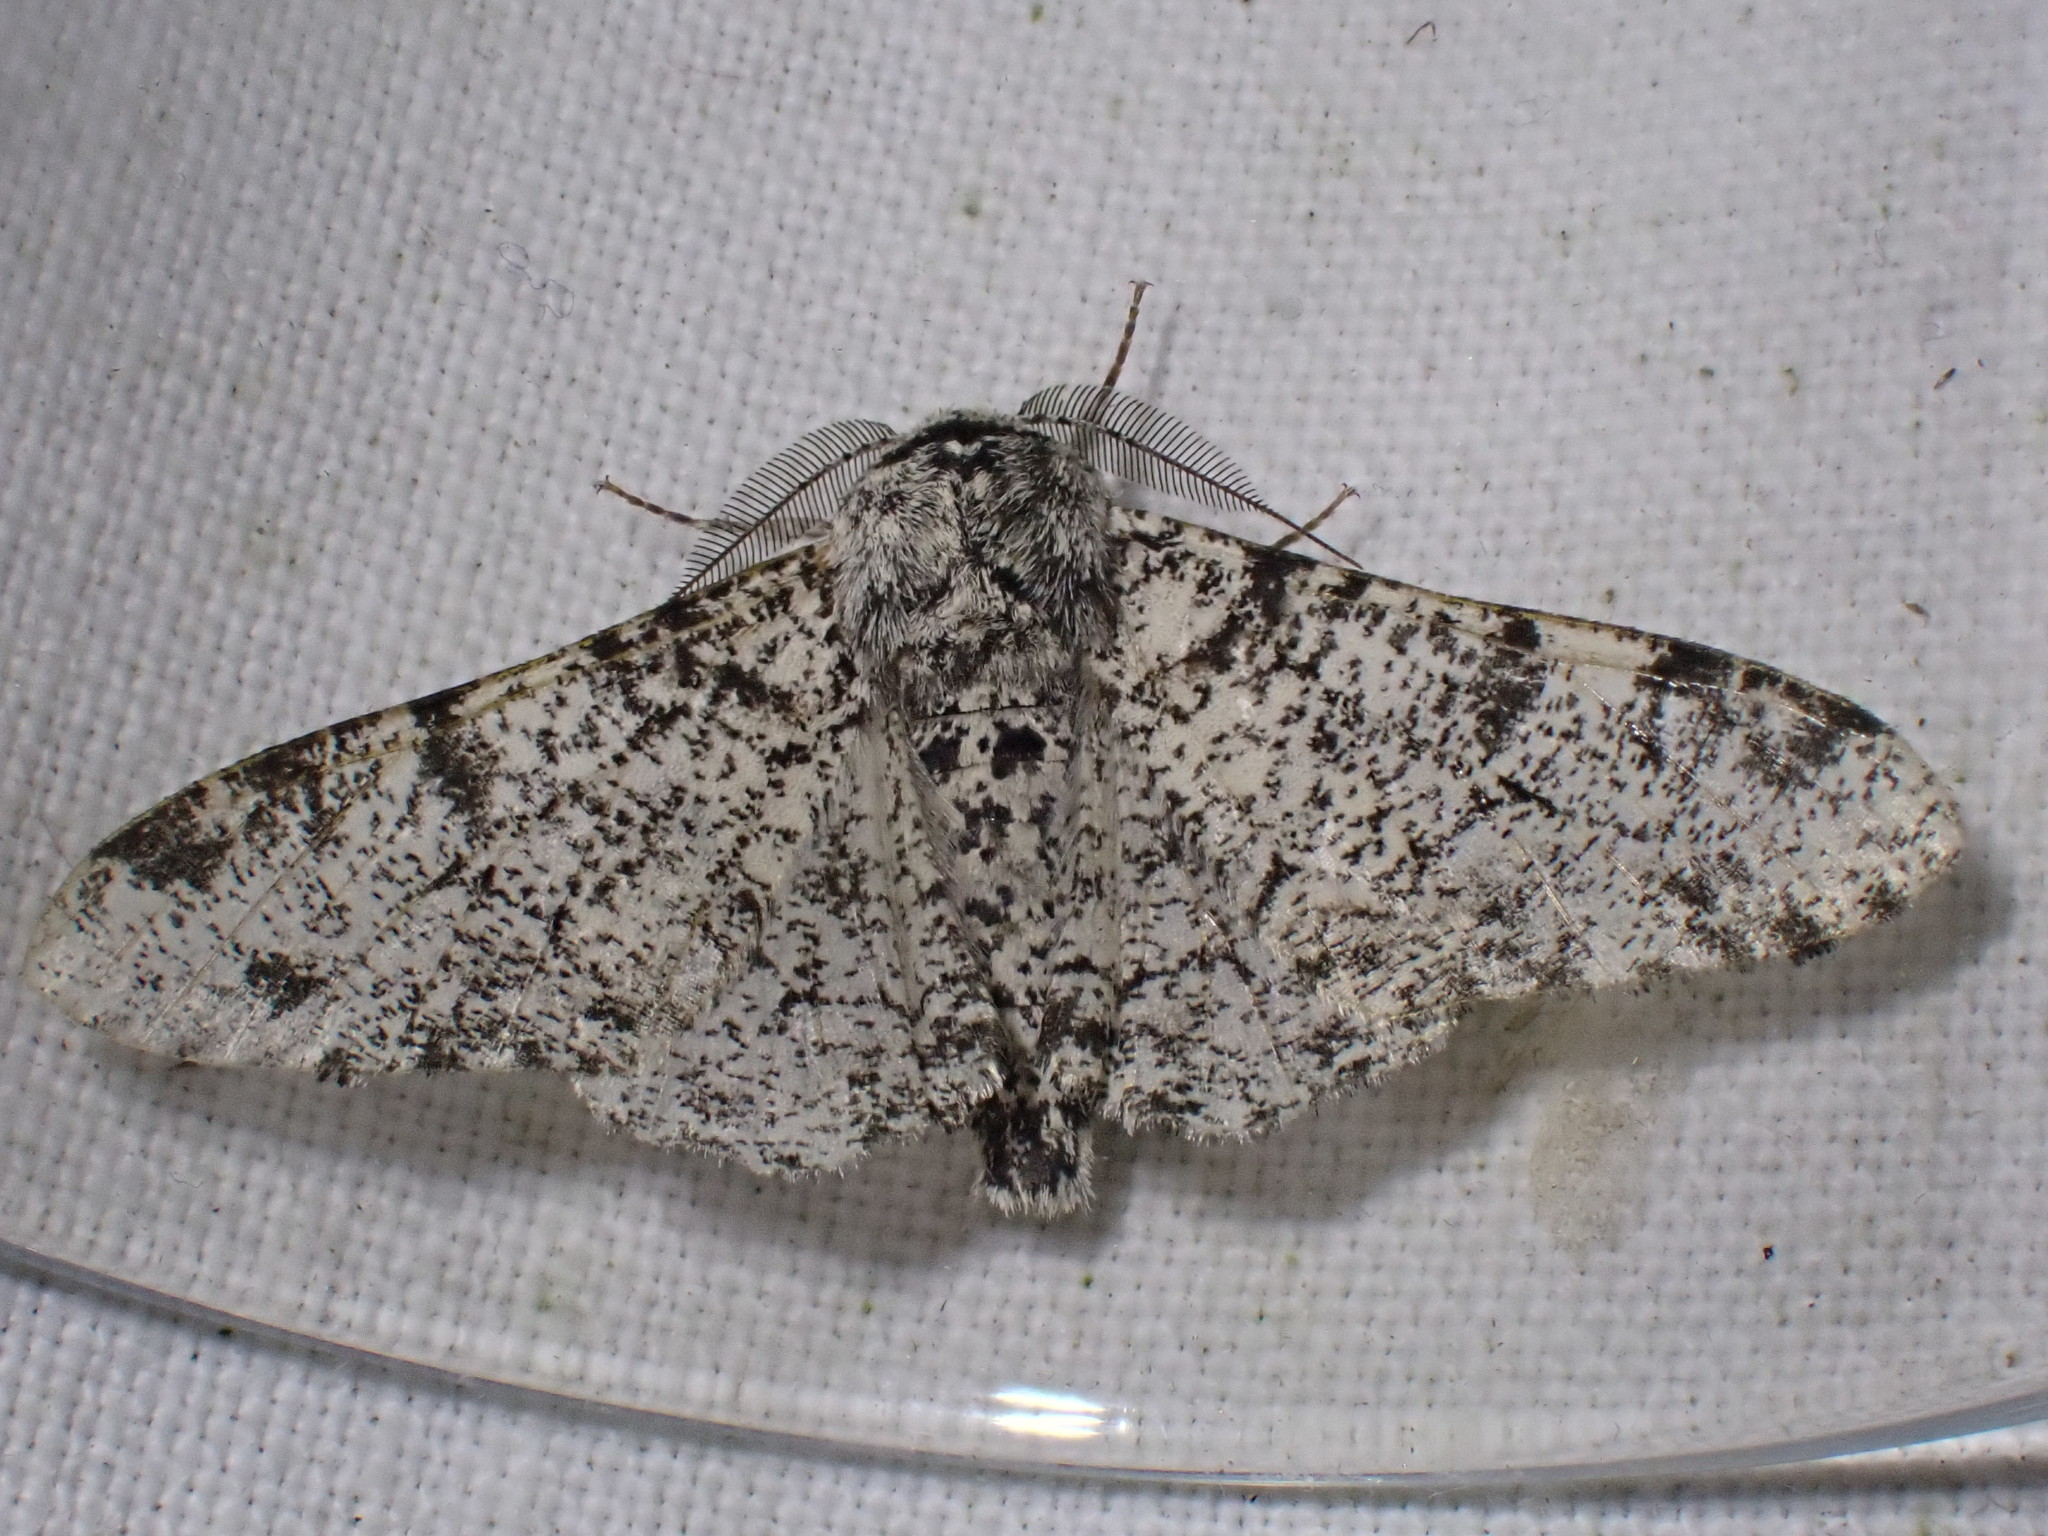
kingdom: Animalia
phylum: Arthropoda
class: Insecta
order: Lepidoptera
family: Geometridae
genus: Biston
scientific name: Biston betularia
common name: Peppered moth
